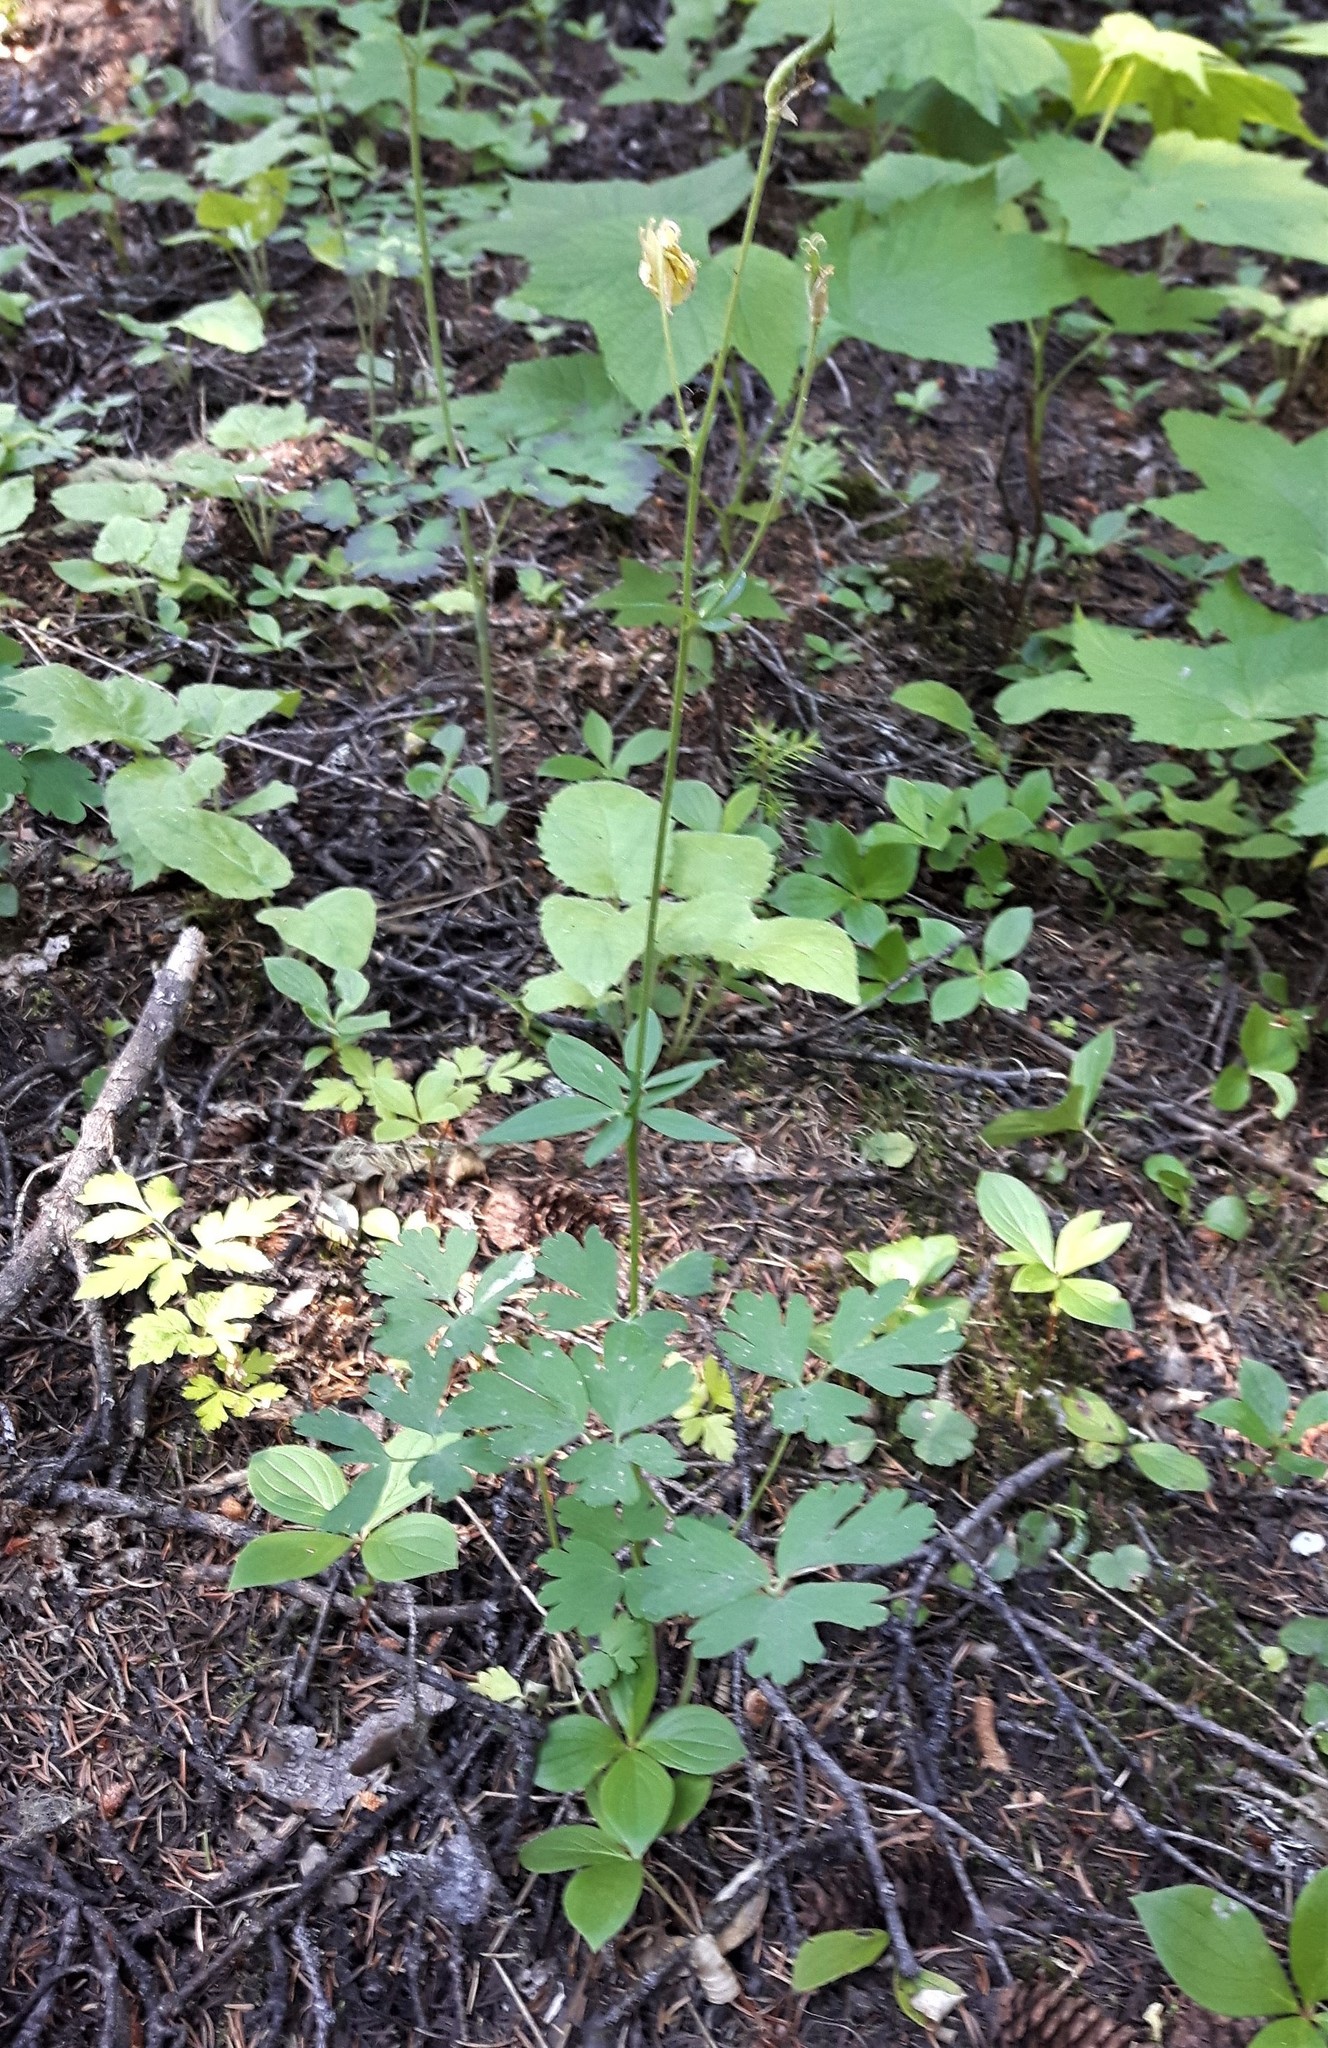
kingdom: Plantae
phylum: Tracheophyta
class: Magnoliopsida
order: Ranunculales
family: Ranunculaceae
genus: Aquilegia
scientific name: Aquilegia flavescens
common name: Yellow columbine
